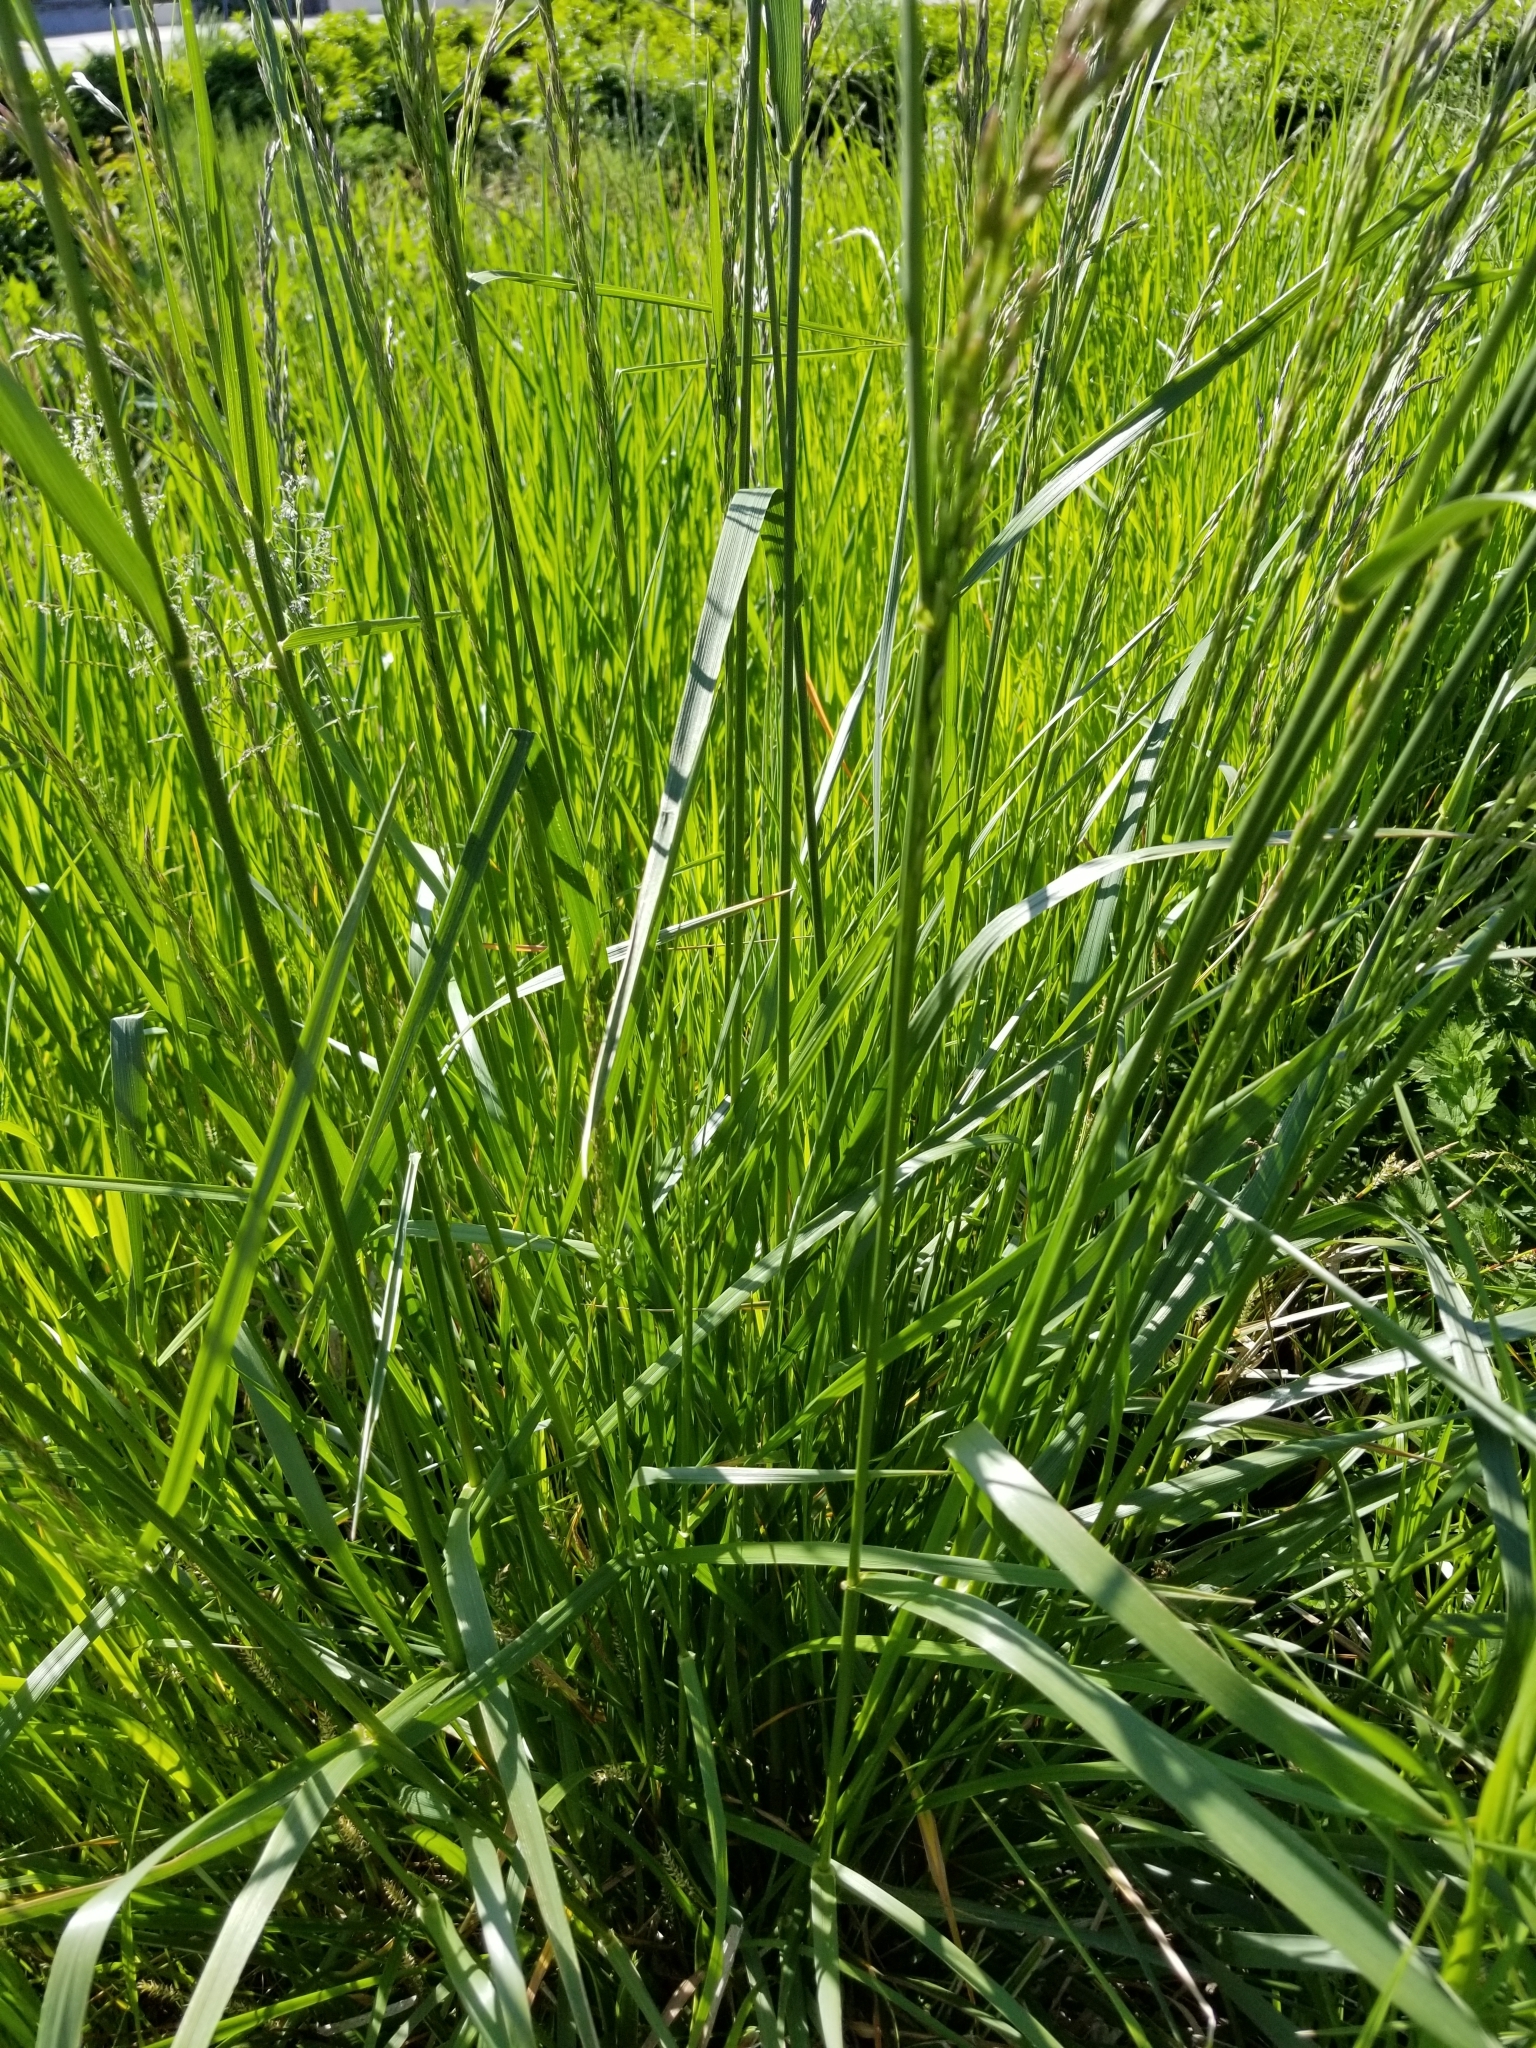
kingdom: Plantae
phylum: Tracheophyta
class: Liliopsida
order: Poales
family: Poaceae
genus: Lolium
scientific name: Lolium arundinaceum
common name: Reed fescue
